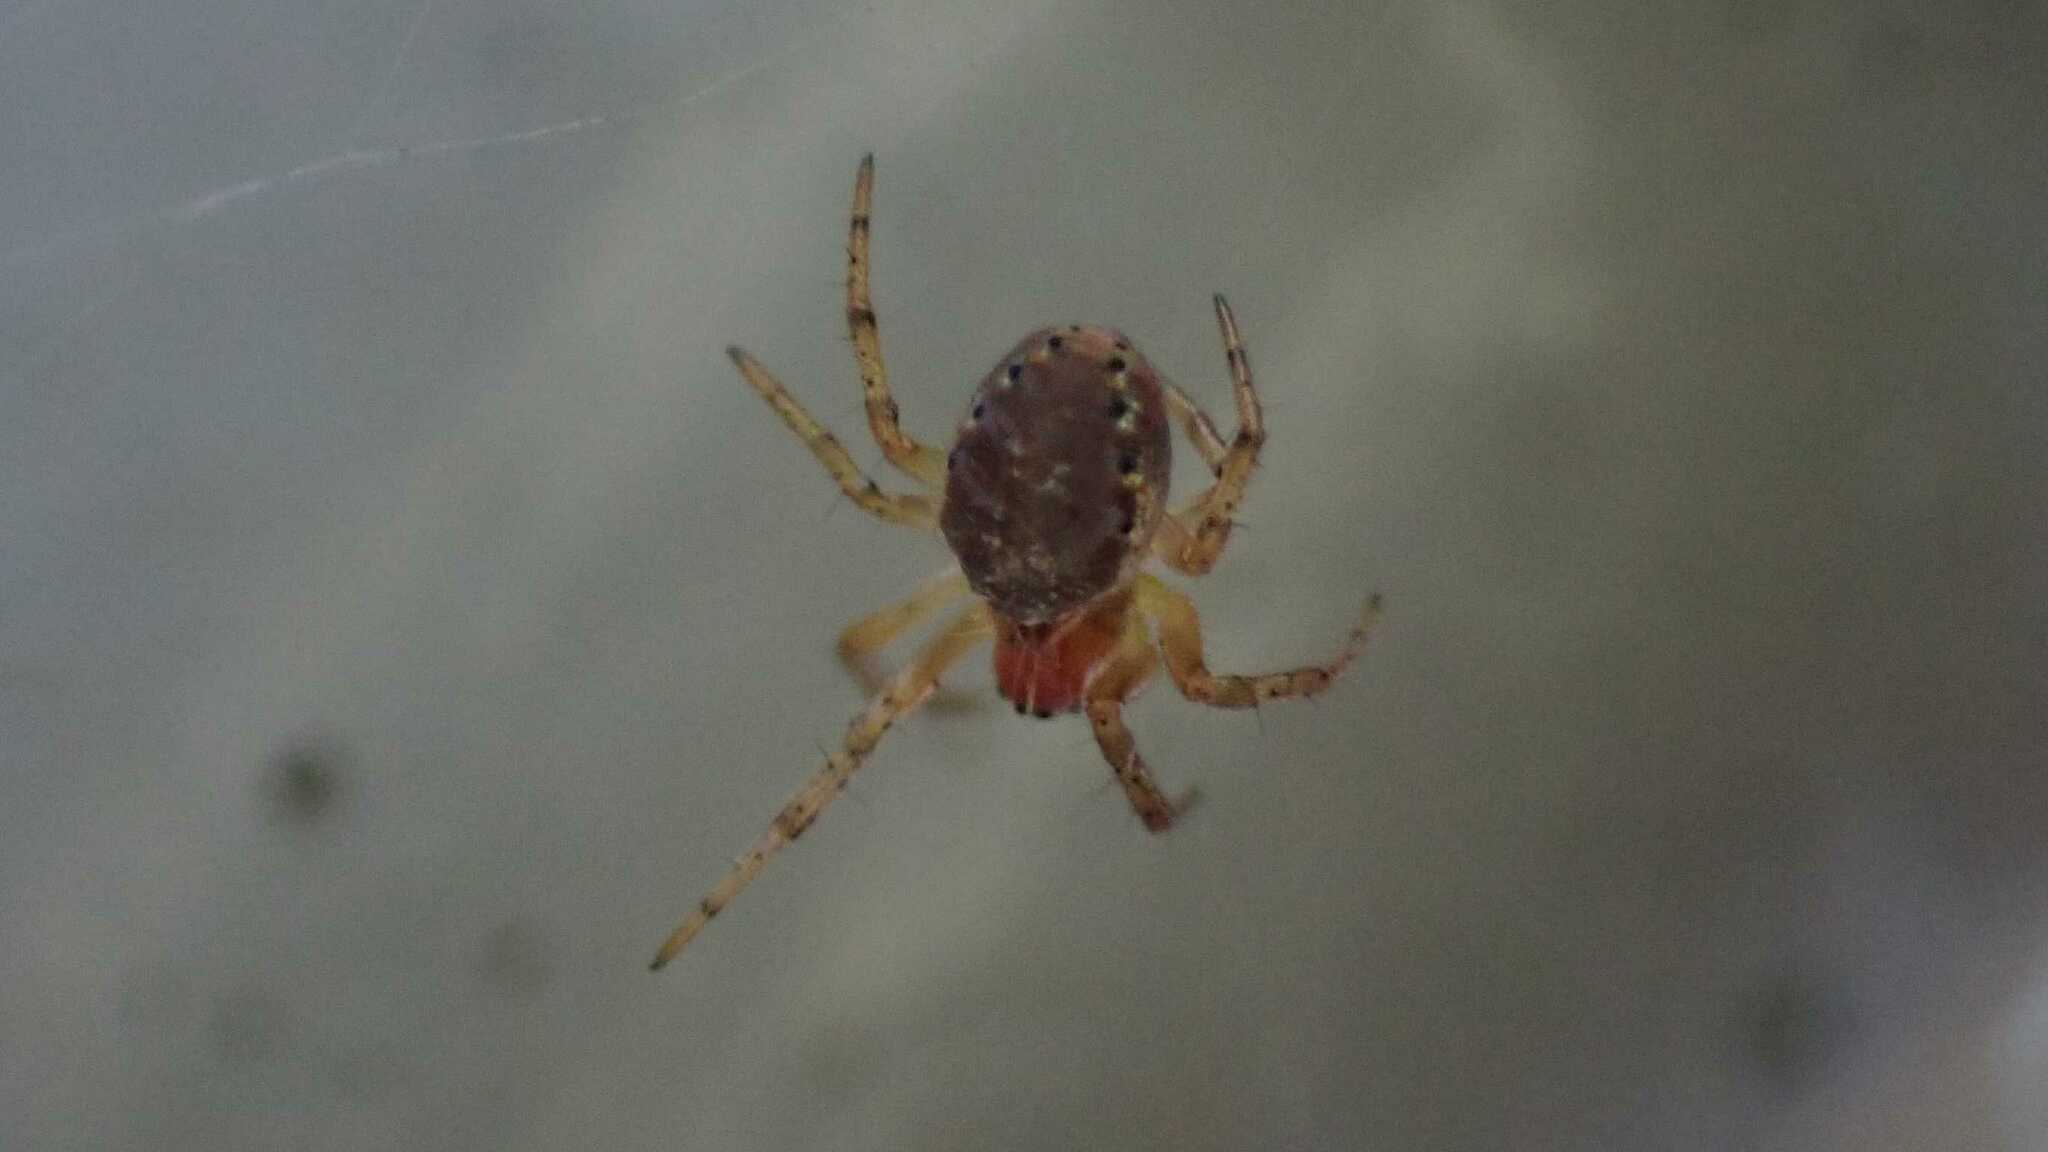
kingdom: Animalia
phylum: Arthropoda
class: Arachnida
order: Araneae
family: Araneidae
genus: Araniella
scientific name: Araniella
